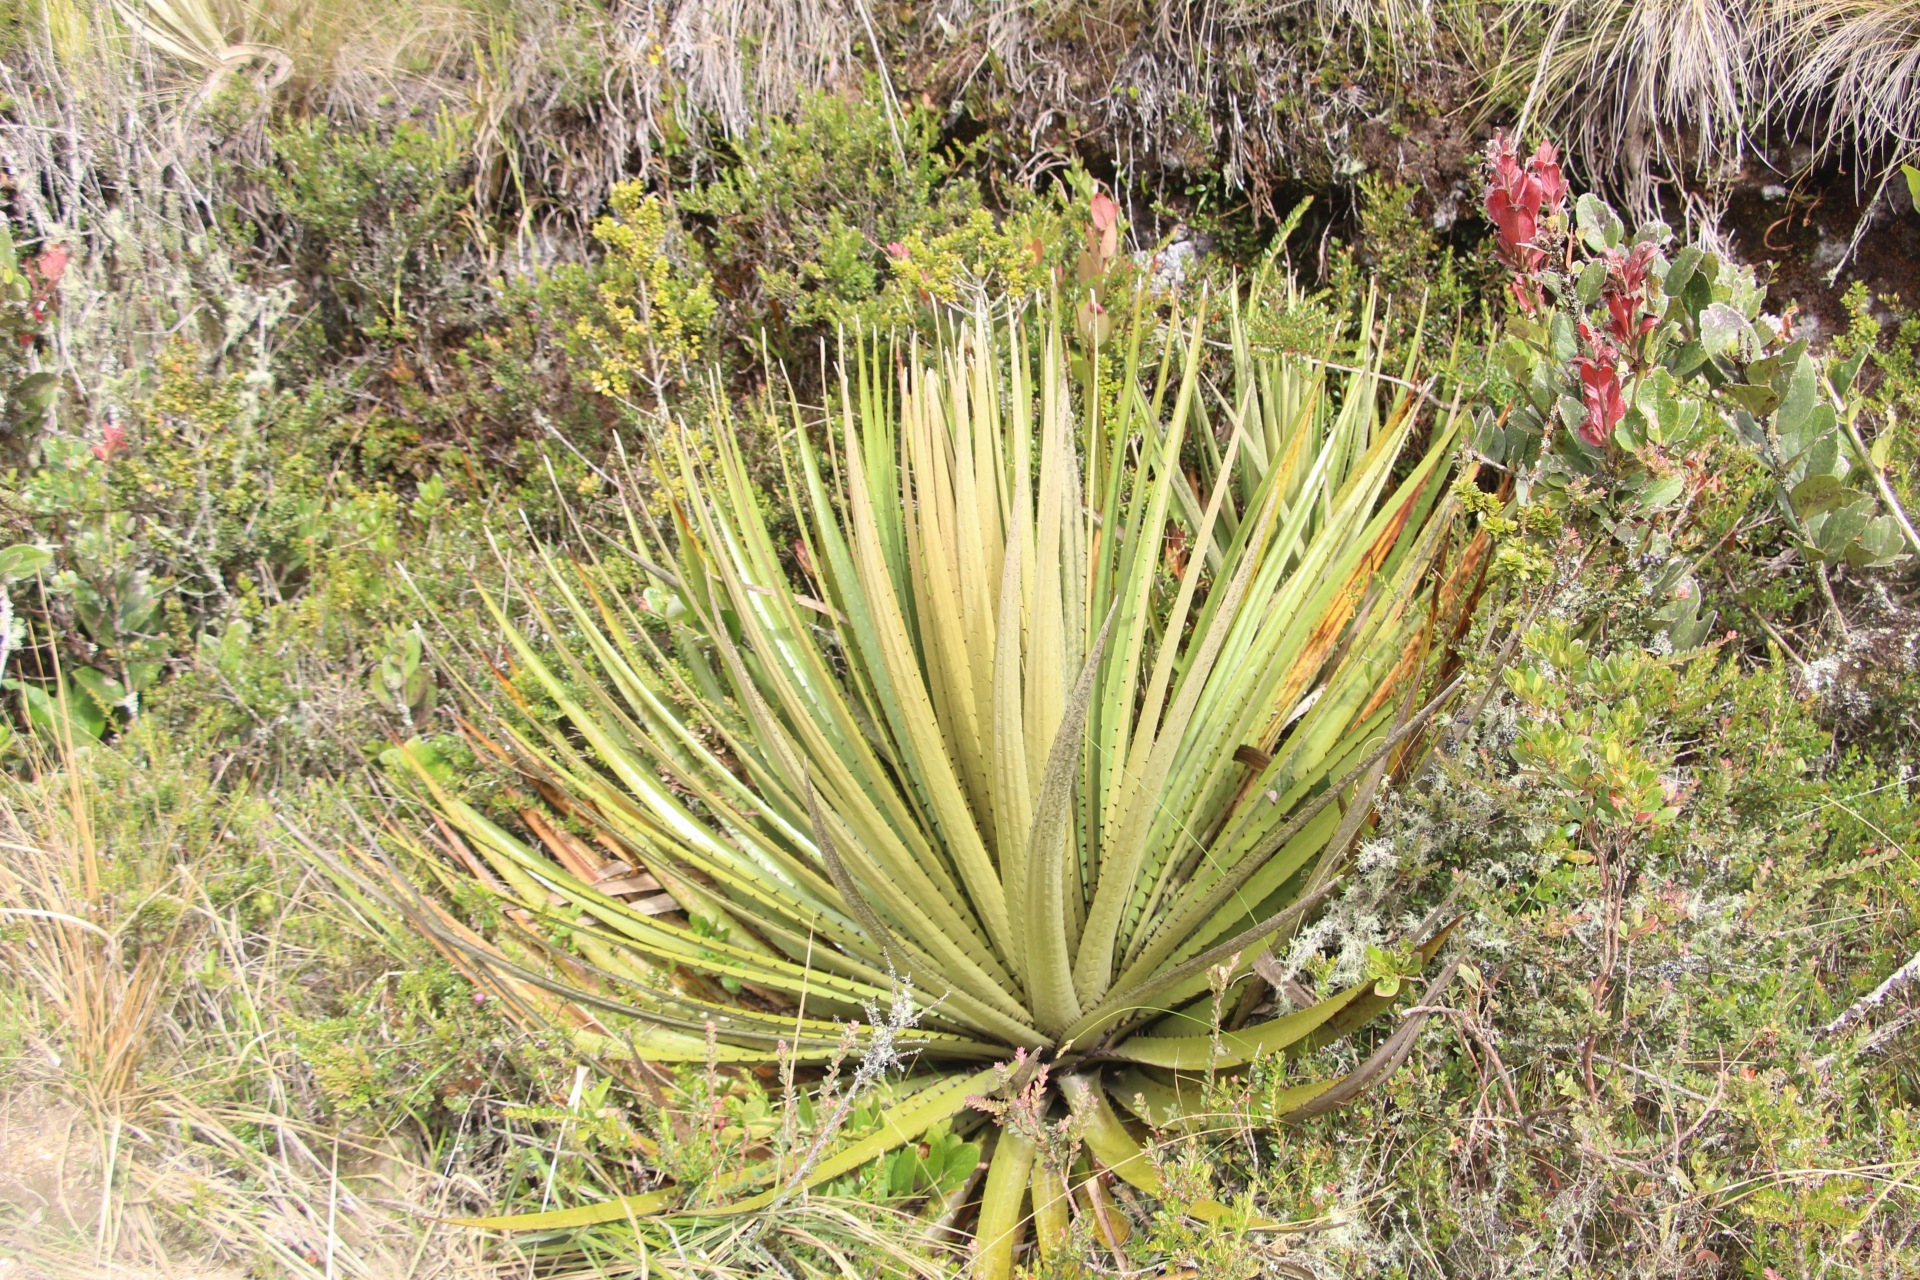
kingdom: Plantae
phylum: Tracheophyta
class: Liliopsida
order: Poales
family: Bromeliaceae
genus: Puya
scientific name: Puya goudotiana
